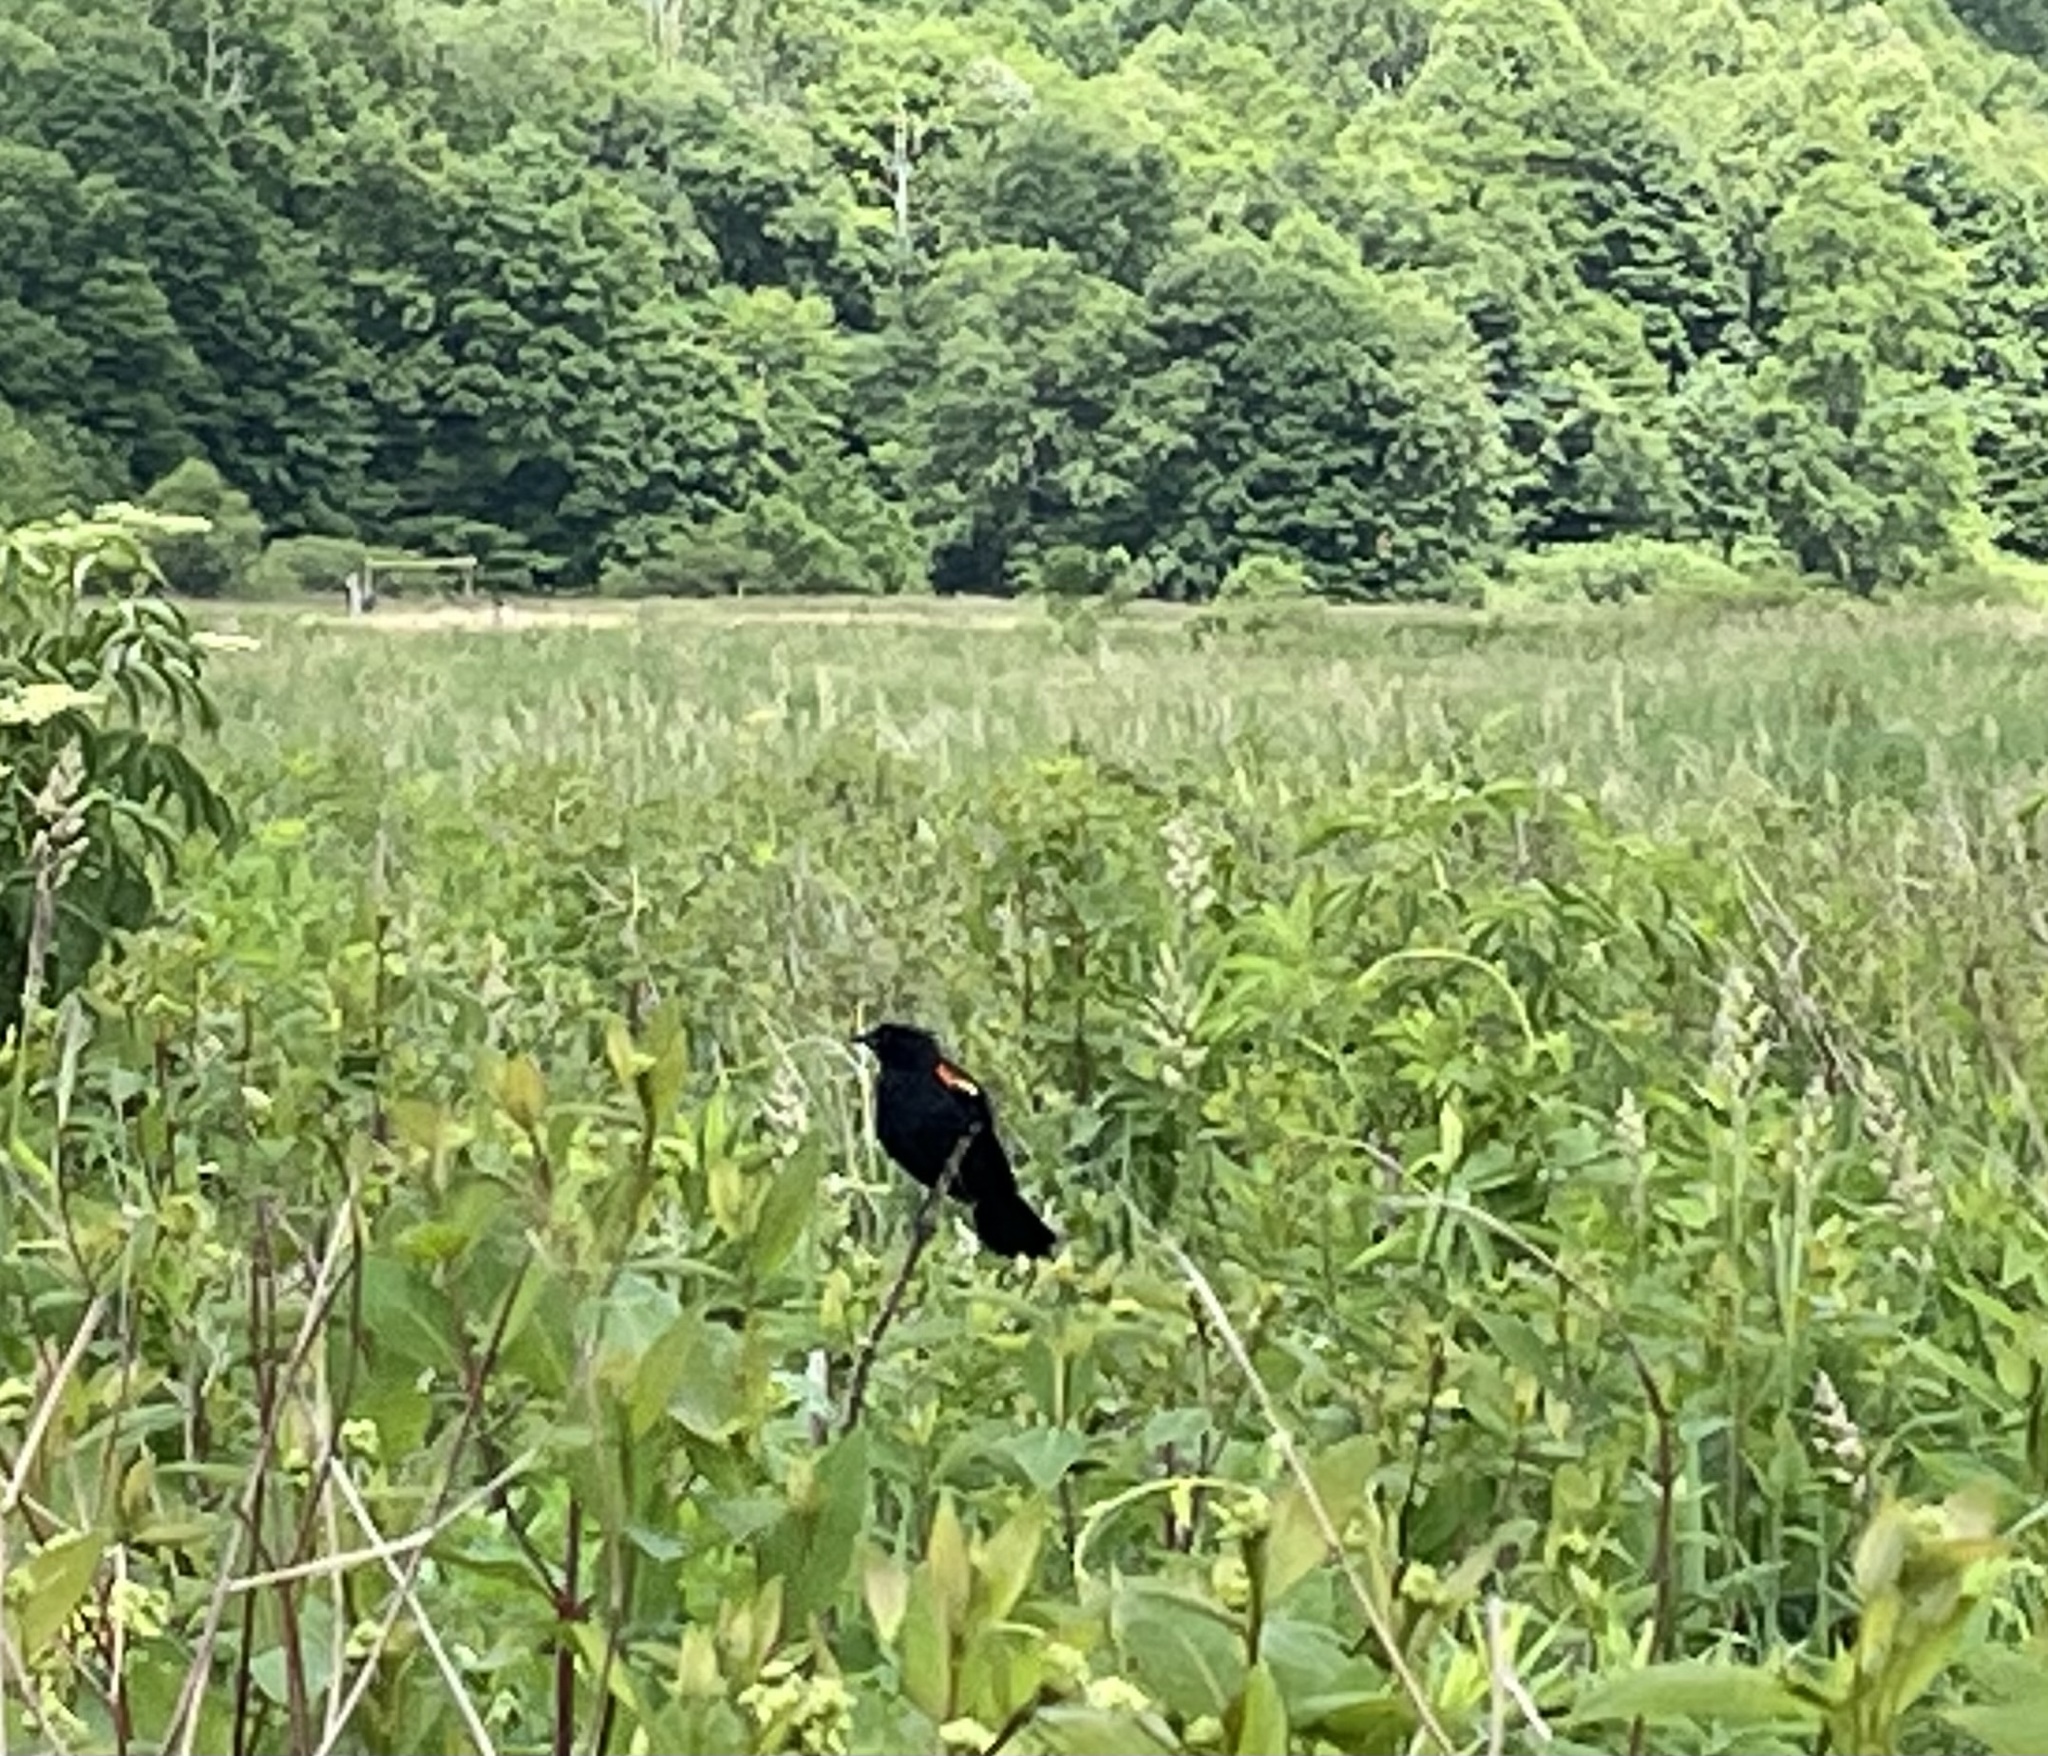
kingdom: Animalia
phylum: Chordata
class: Aves
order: Passeriformes
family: Icteridae
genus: Agelaius
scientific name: Agelaius phoeniceus
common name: Red-winged blackbird
